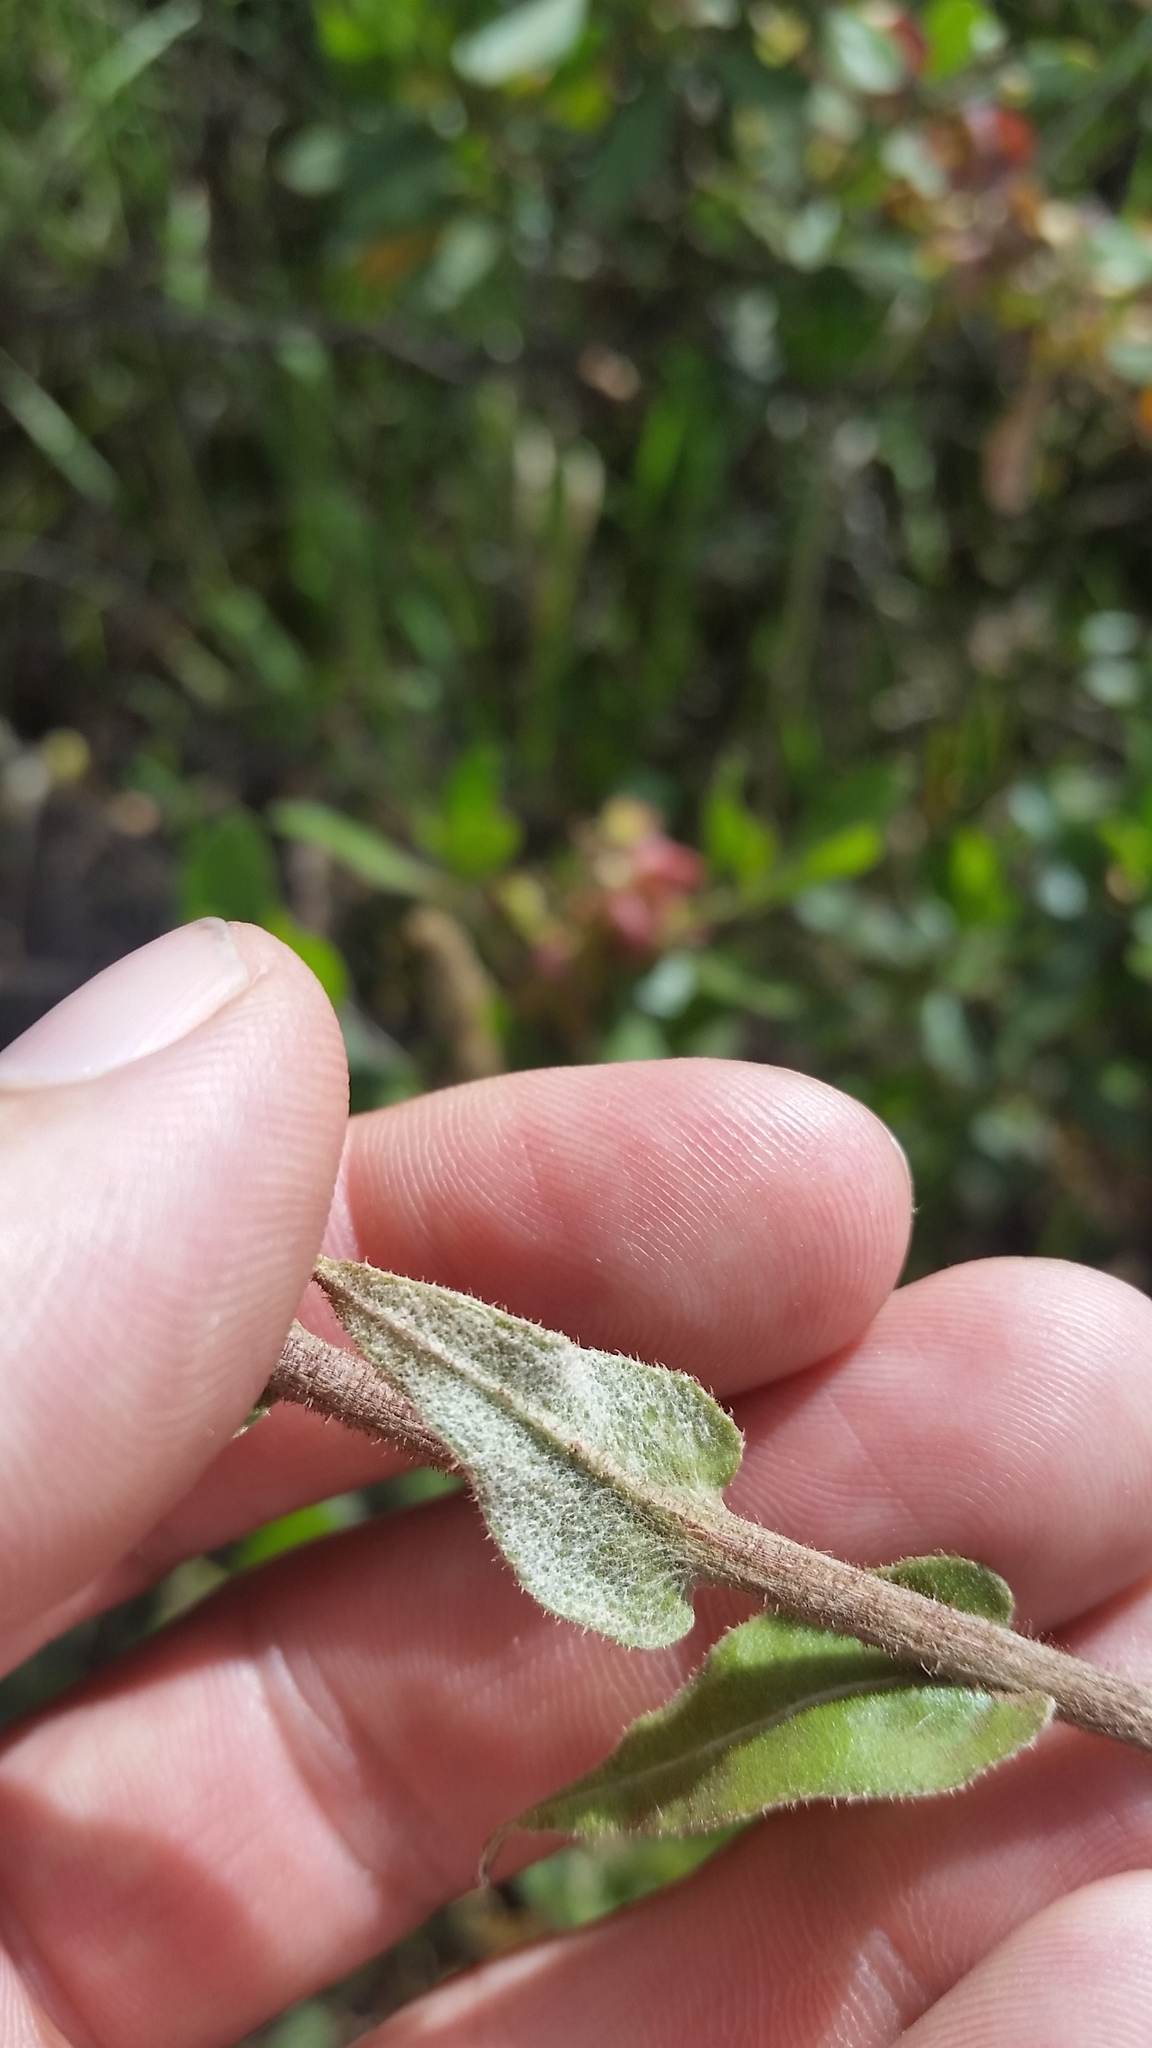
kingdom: Plantae
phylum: Tracheophyta
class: Magnoliopsida
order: Asterales
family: Asteraceae
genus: Helichrysum
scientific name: Helichrysum foetidum
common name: Stinking everlasting
